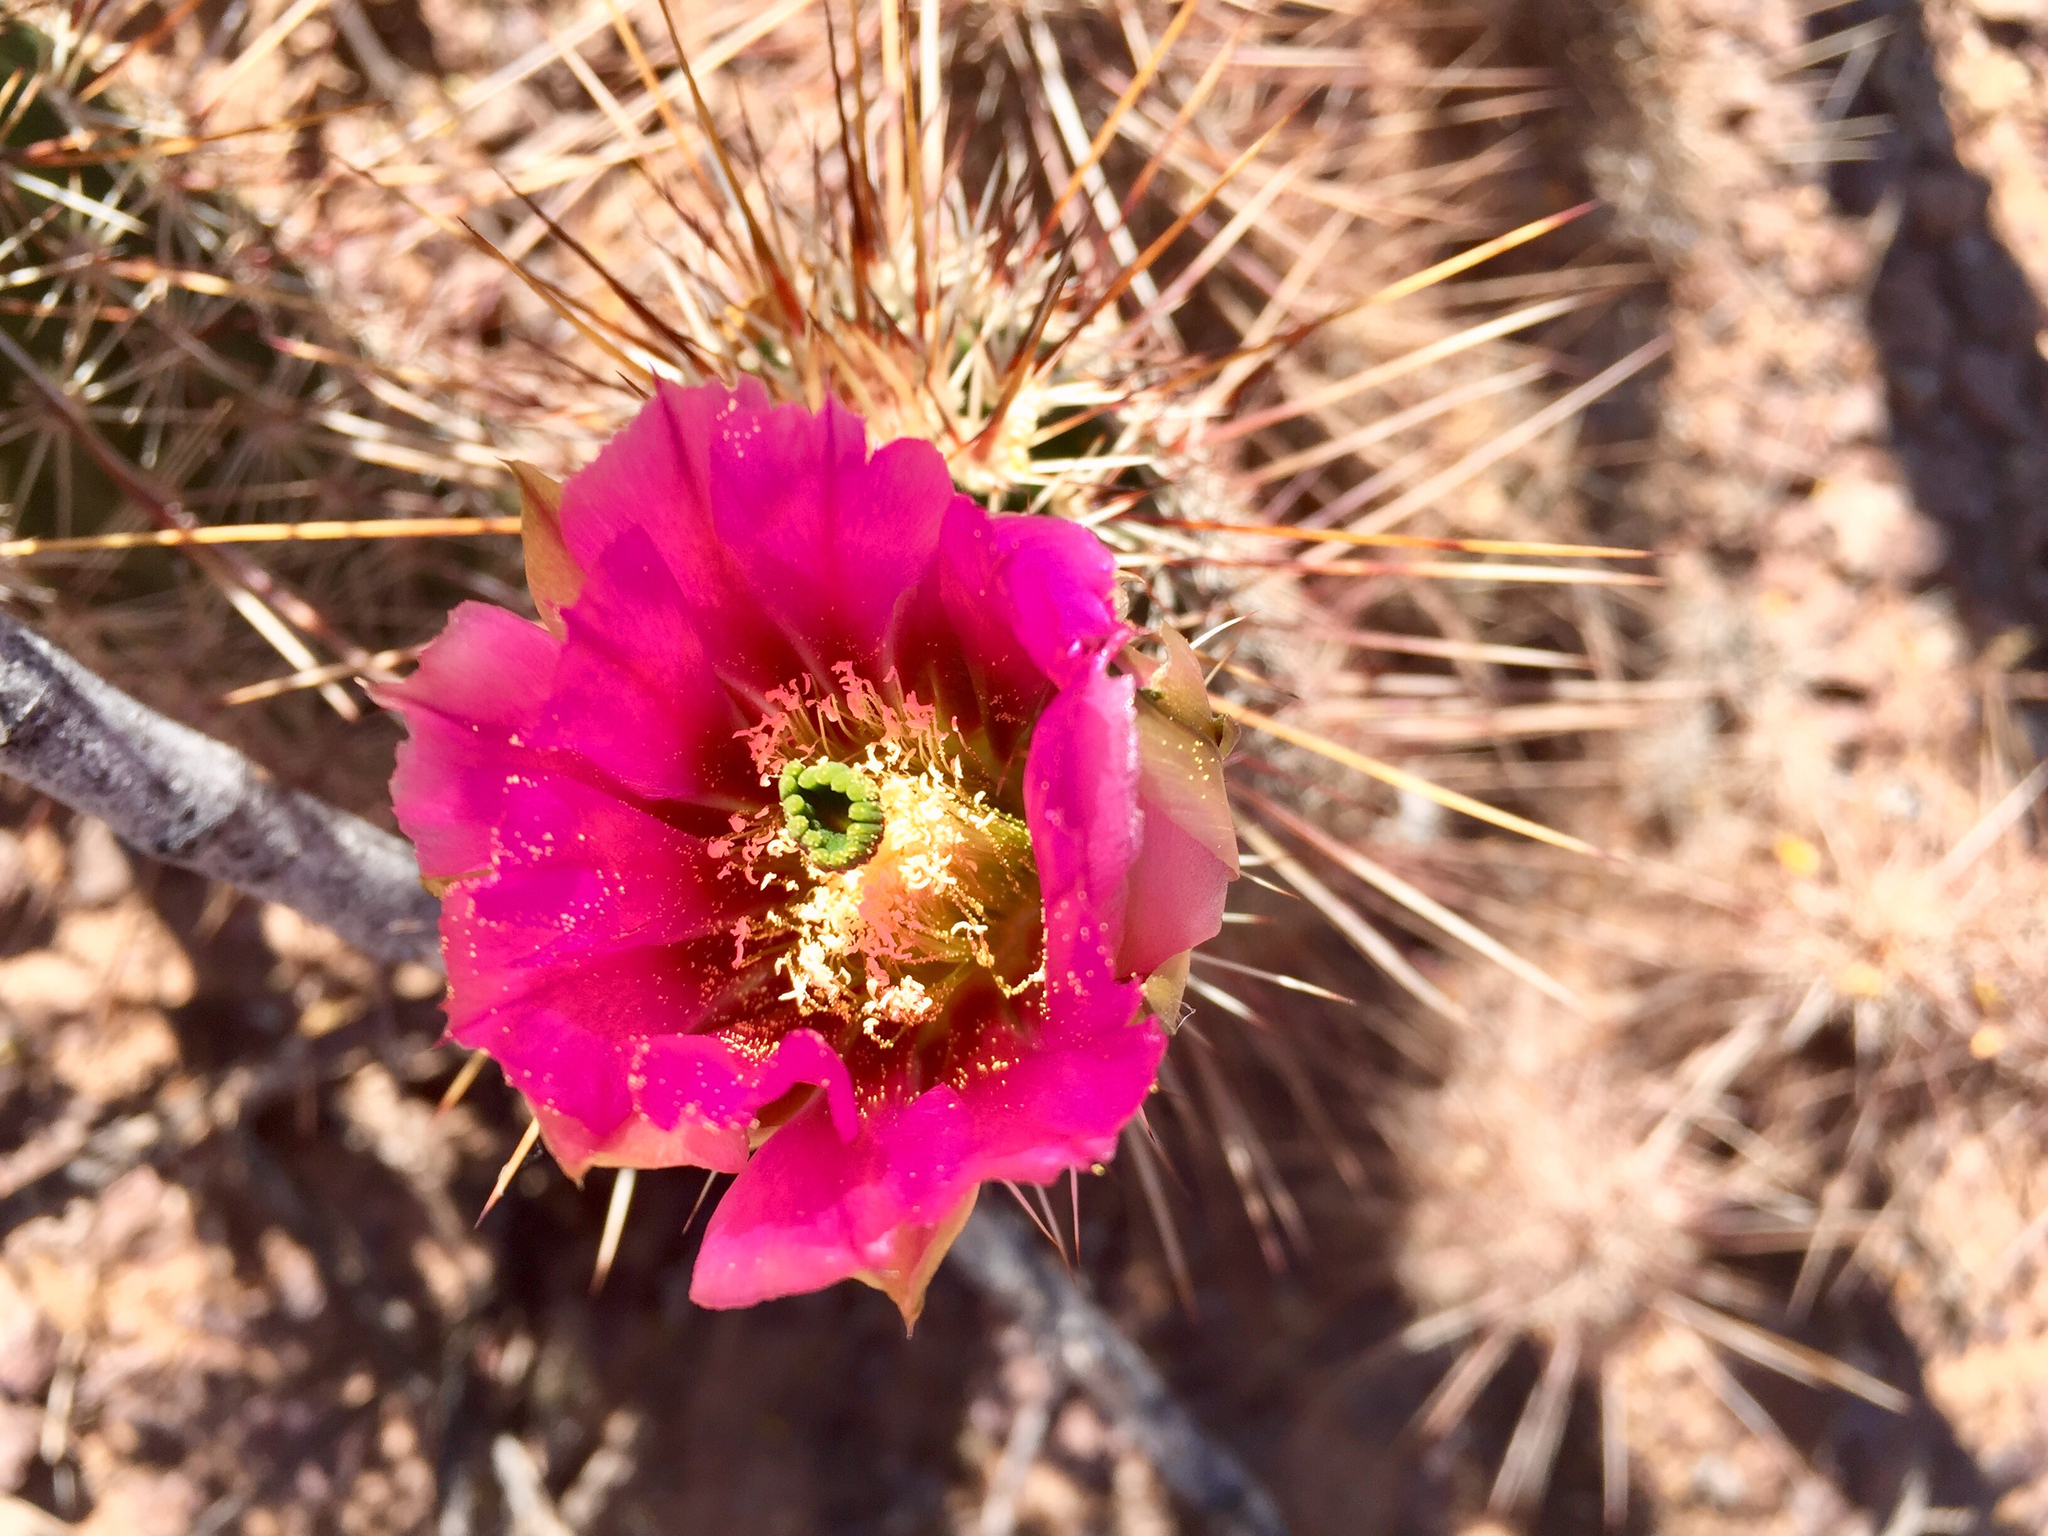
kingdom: Plantae
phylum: Tracheophyta
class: Magnoliopsida
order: Caryophyllales
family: Cactaceae
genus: Echinocereus
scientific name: Echinocereus fasciculatus
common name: Bundle hedgehog
